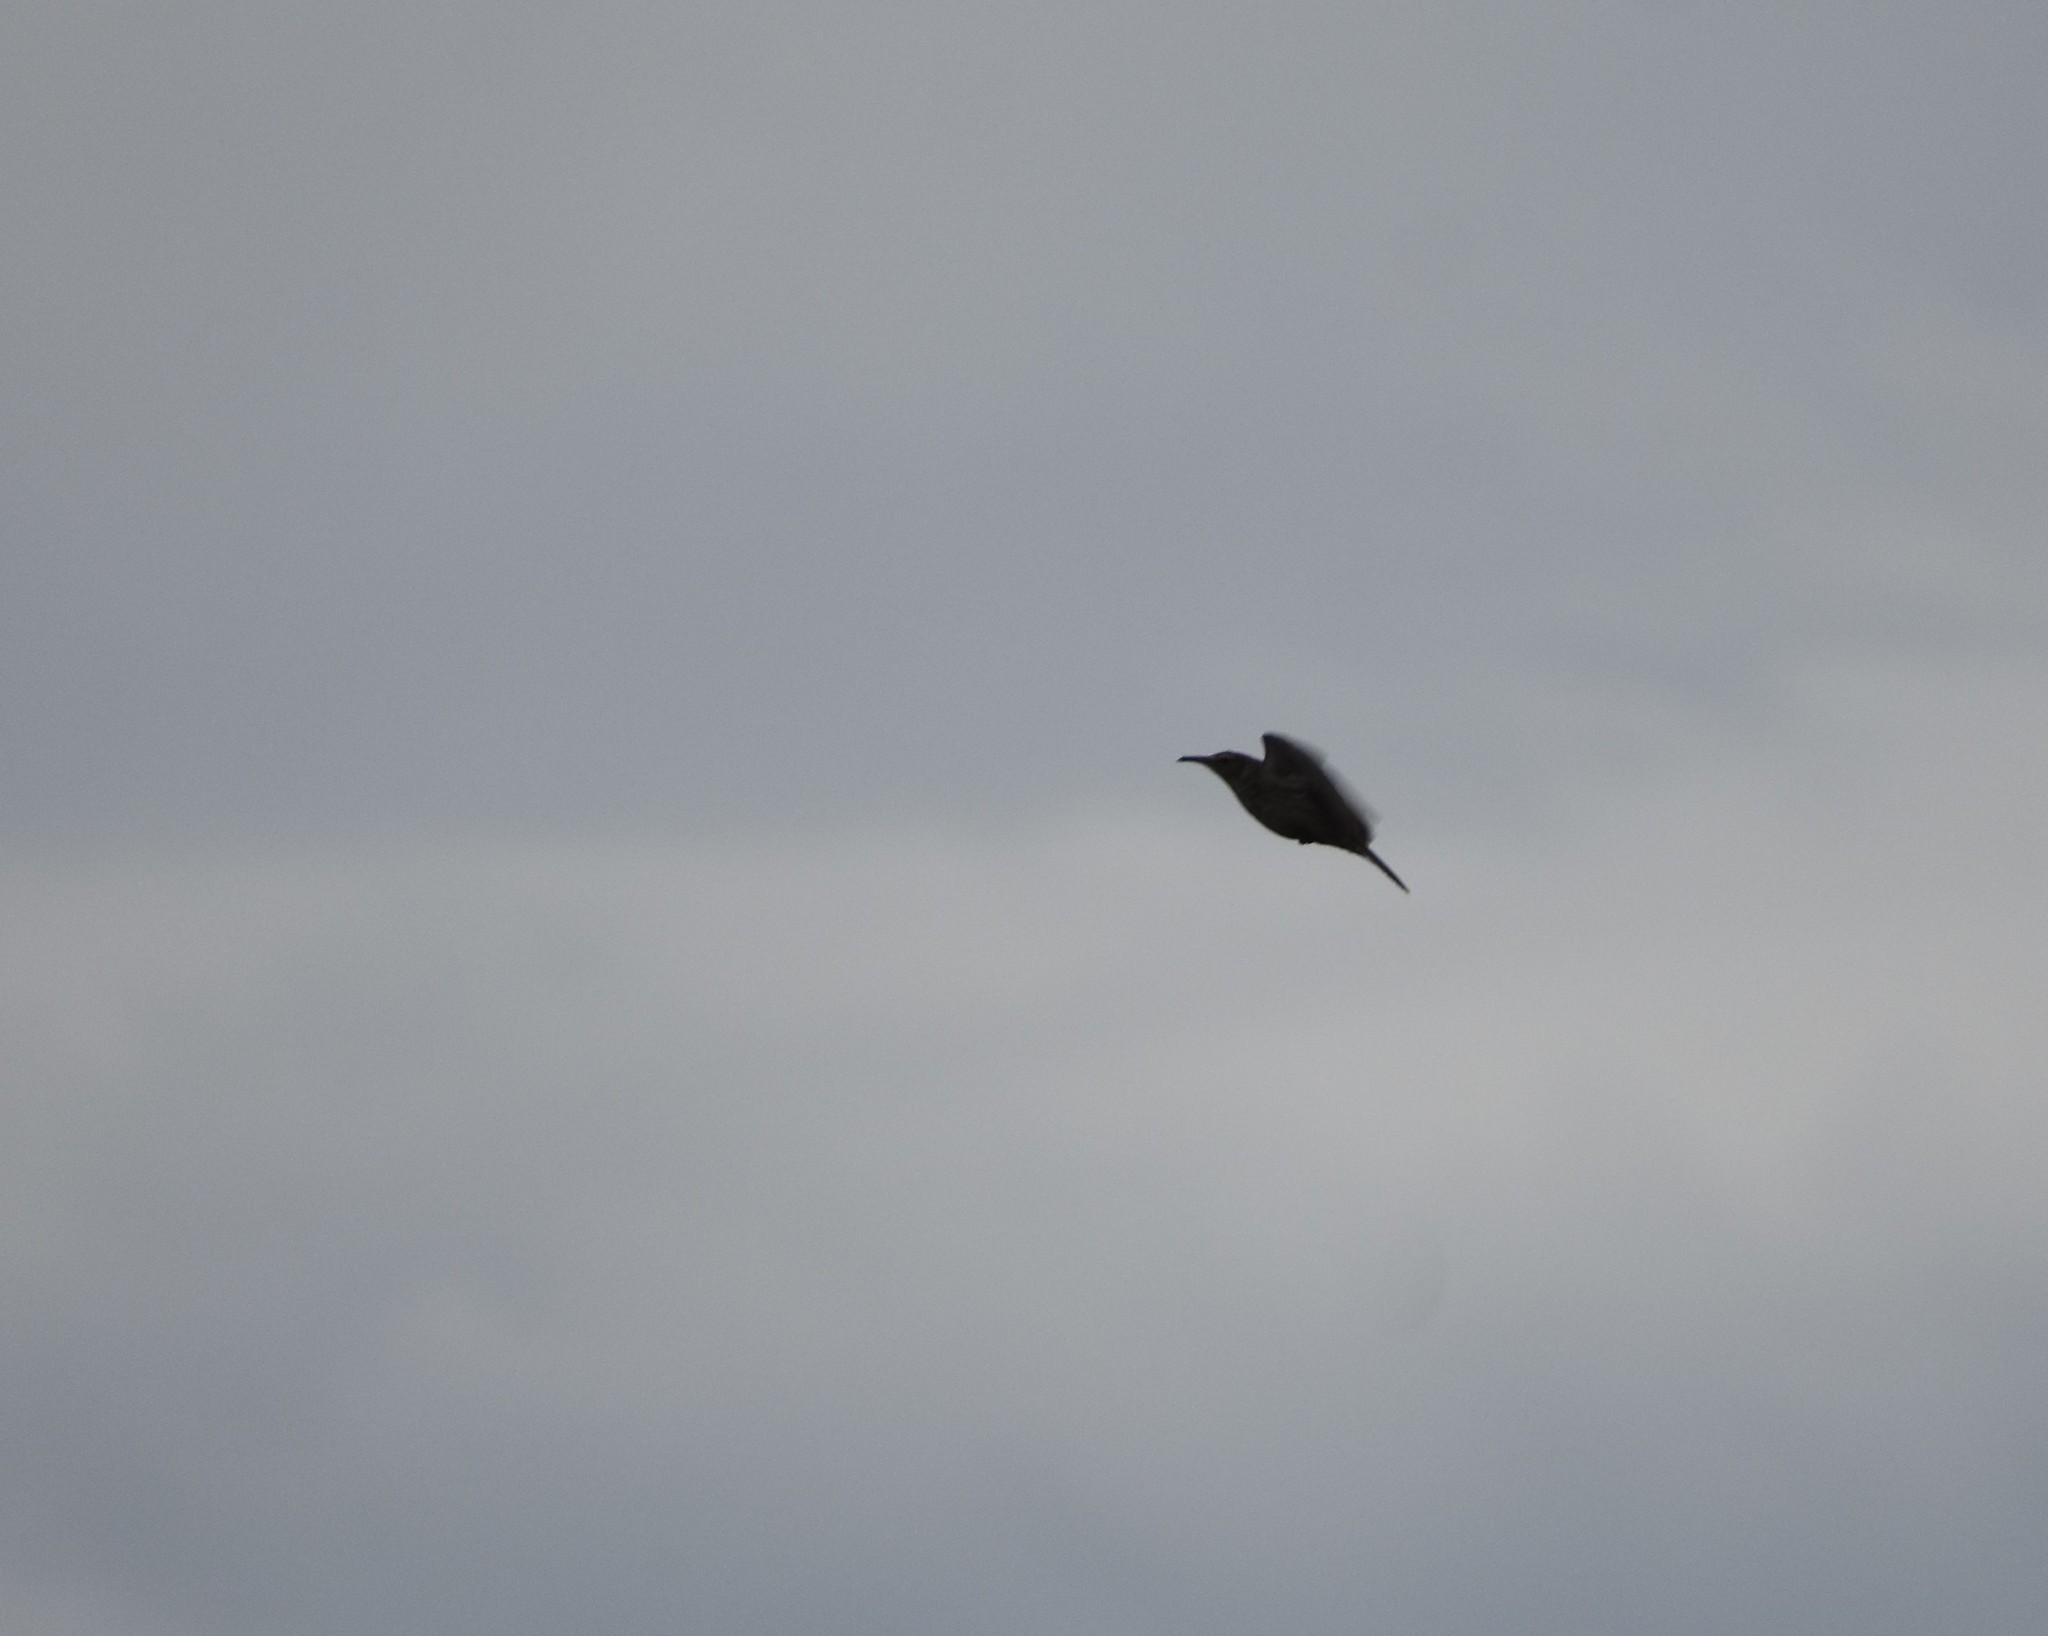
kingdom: Animalia
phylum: Chordata
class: Aves
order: Passeriformes
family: Alaudidae
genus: Certhilauda
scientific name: Certhilauda curvirostris
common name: Cape long-billed lark
